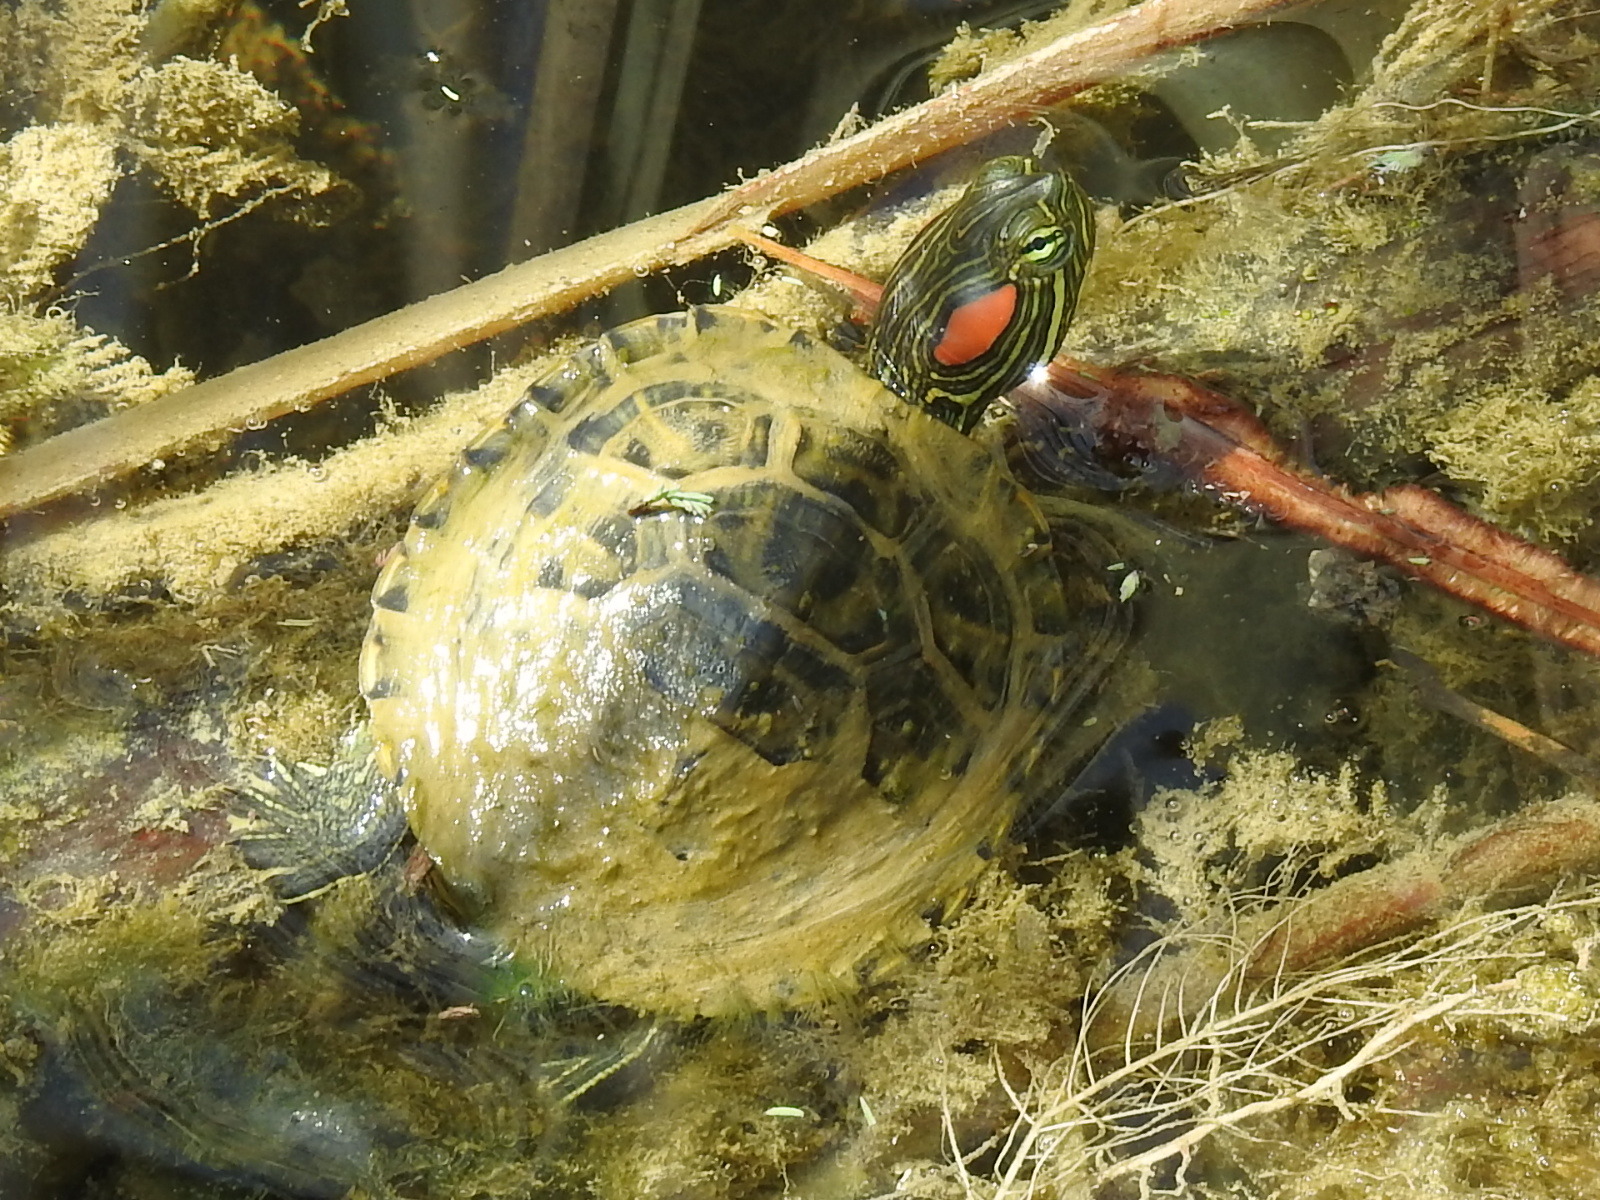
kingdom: Animalia
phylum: Chordata
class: Testudines
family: Emydidae
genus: Trachemys
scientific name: Trachemys scripta
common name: Slider
